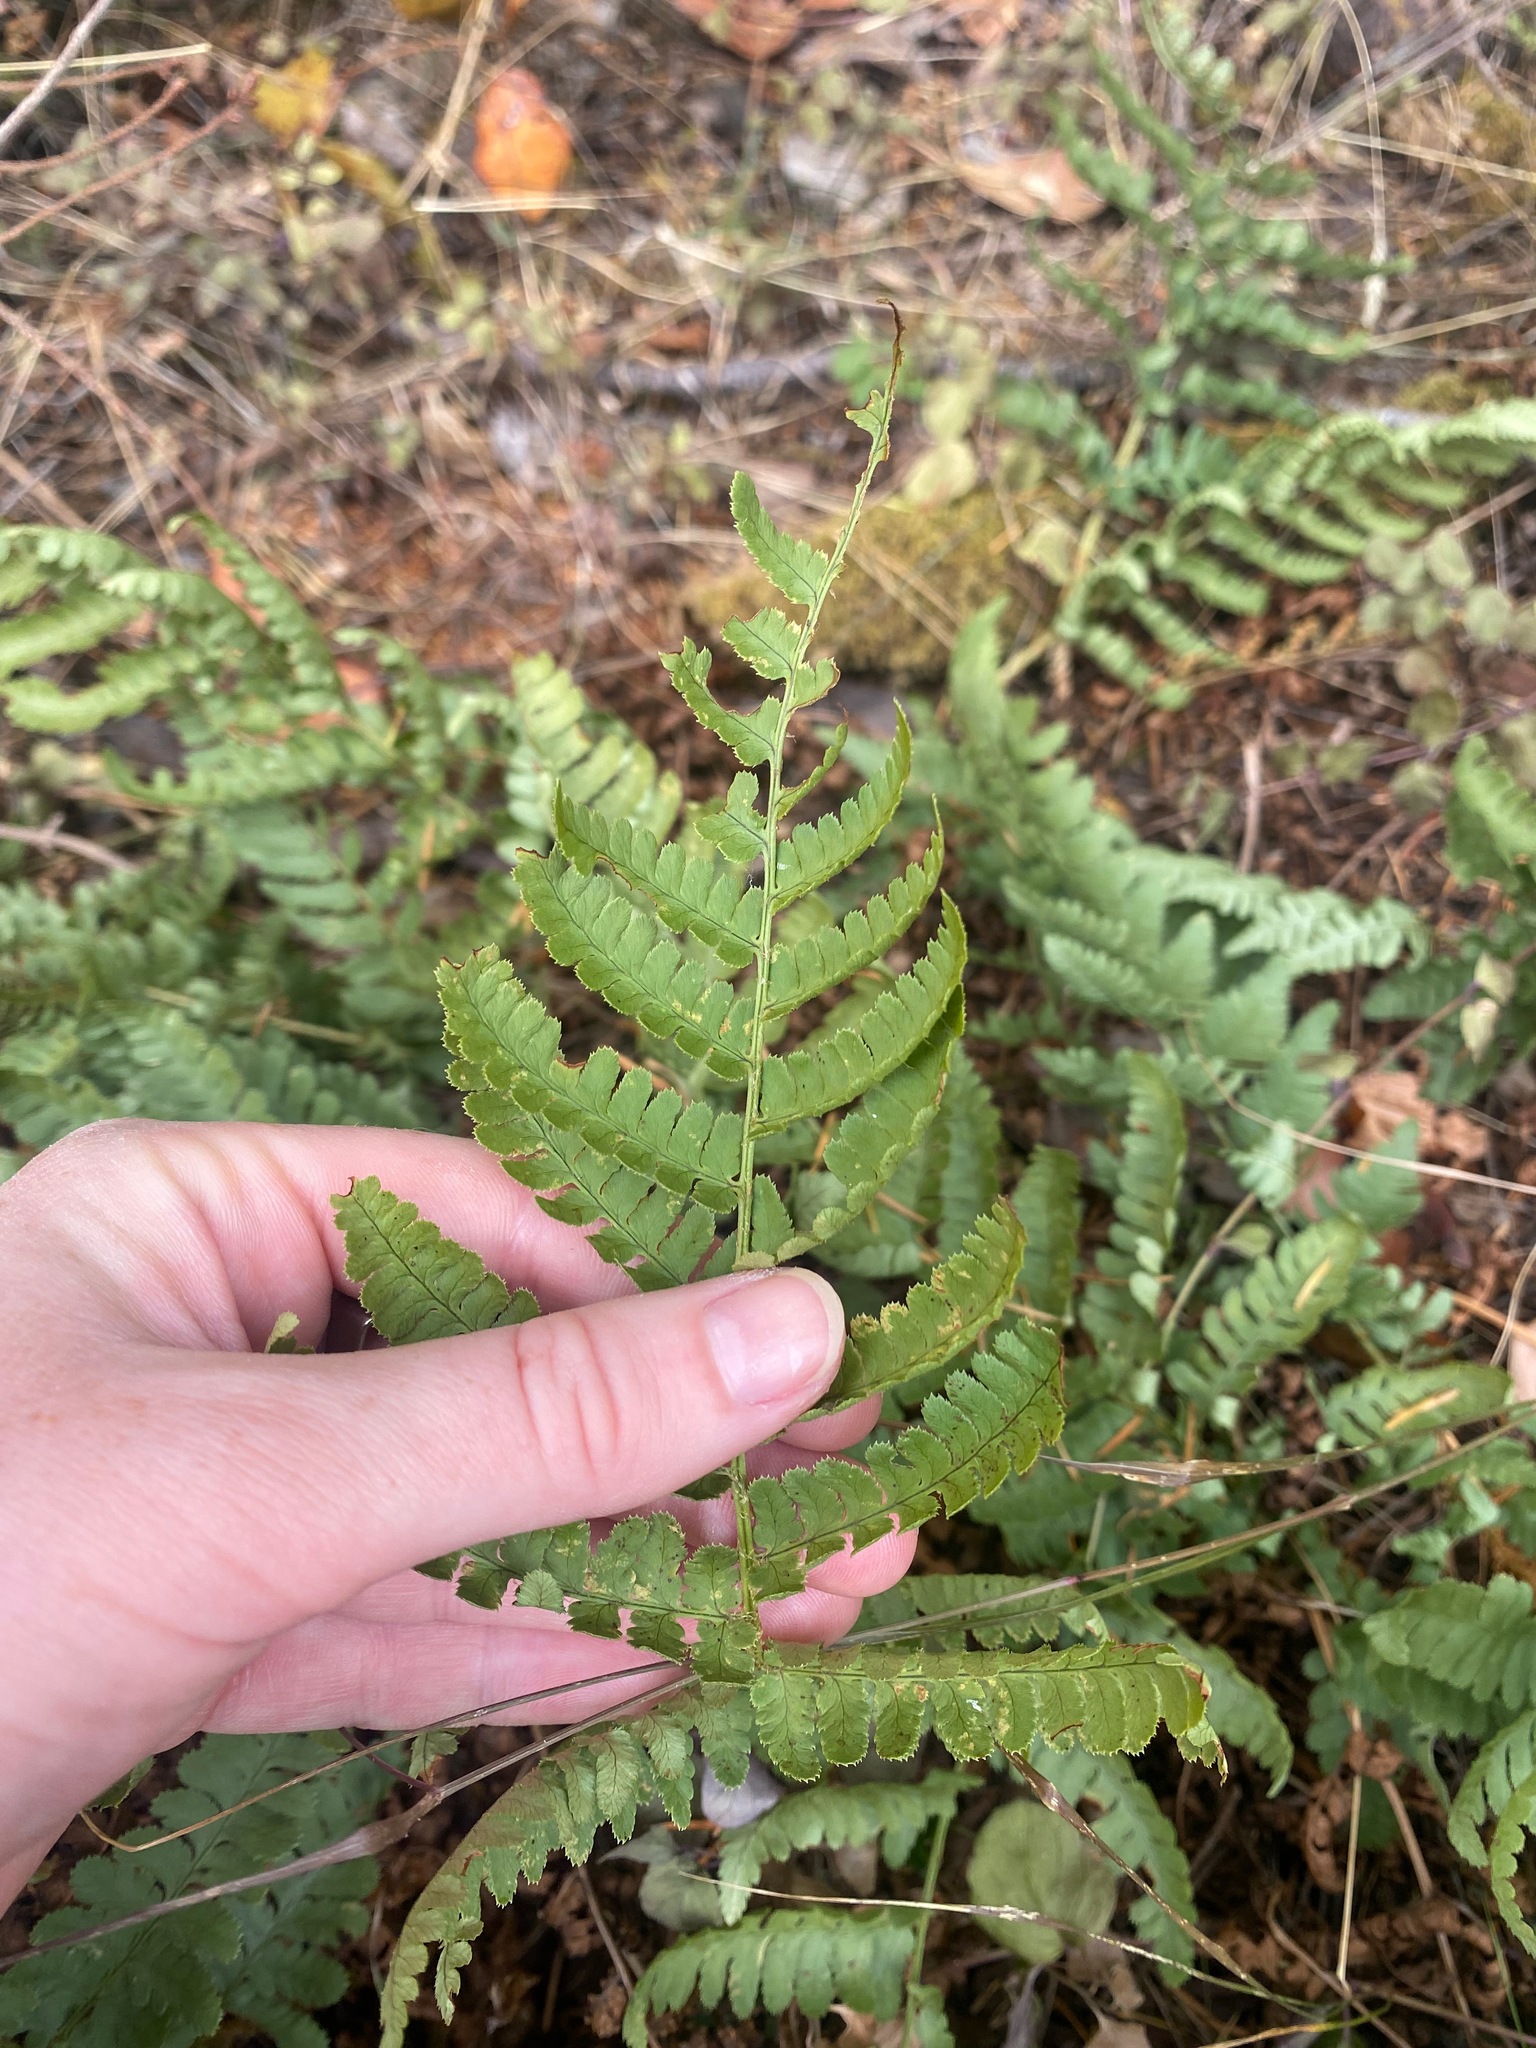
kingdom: Plantae
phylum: Tracheophyta
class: Polypodiopsida
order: Polypodiales
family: Dryopteridaceae
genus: Dryopteris
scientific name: Dryopteris arguta
